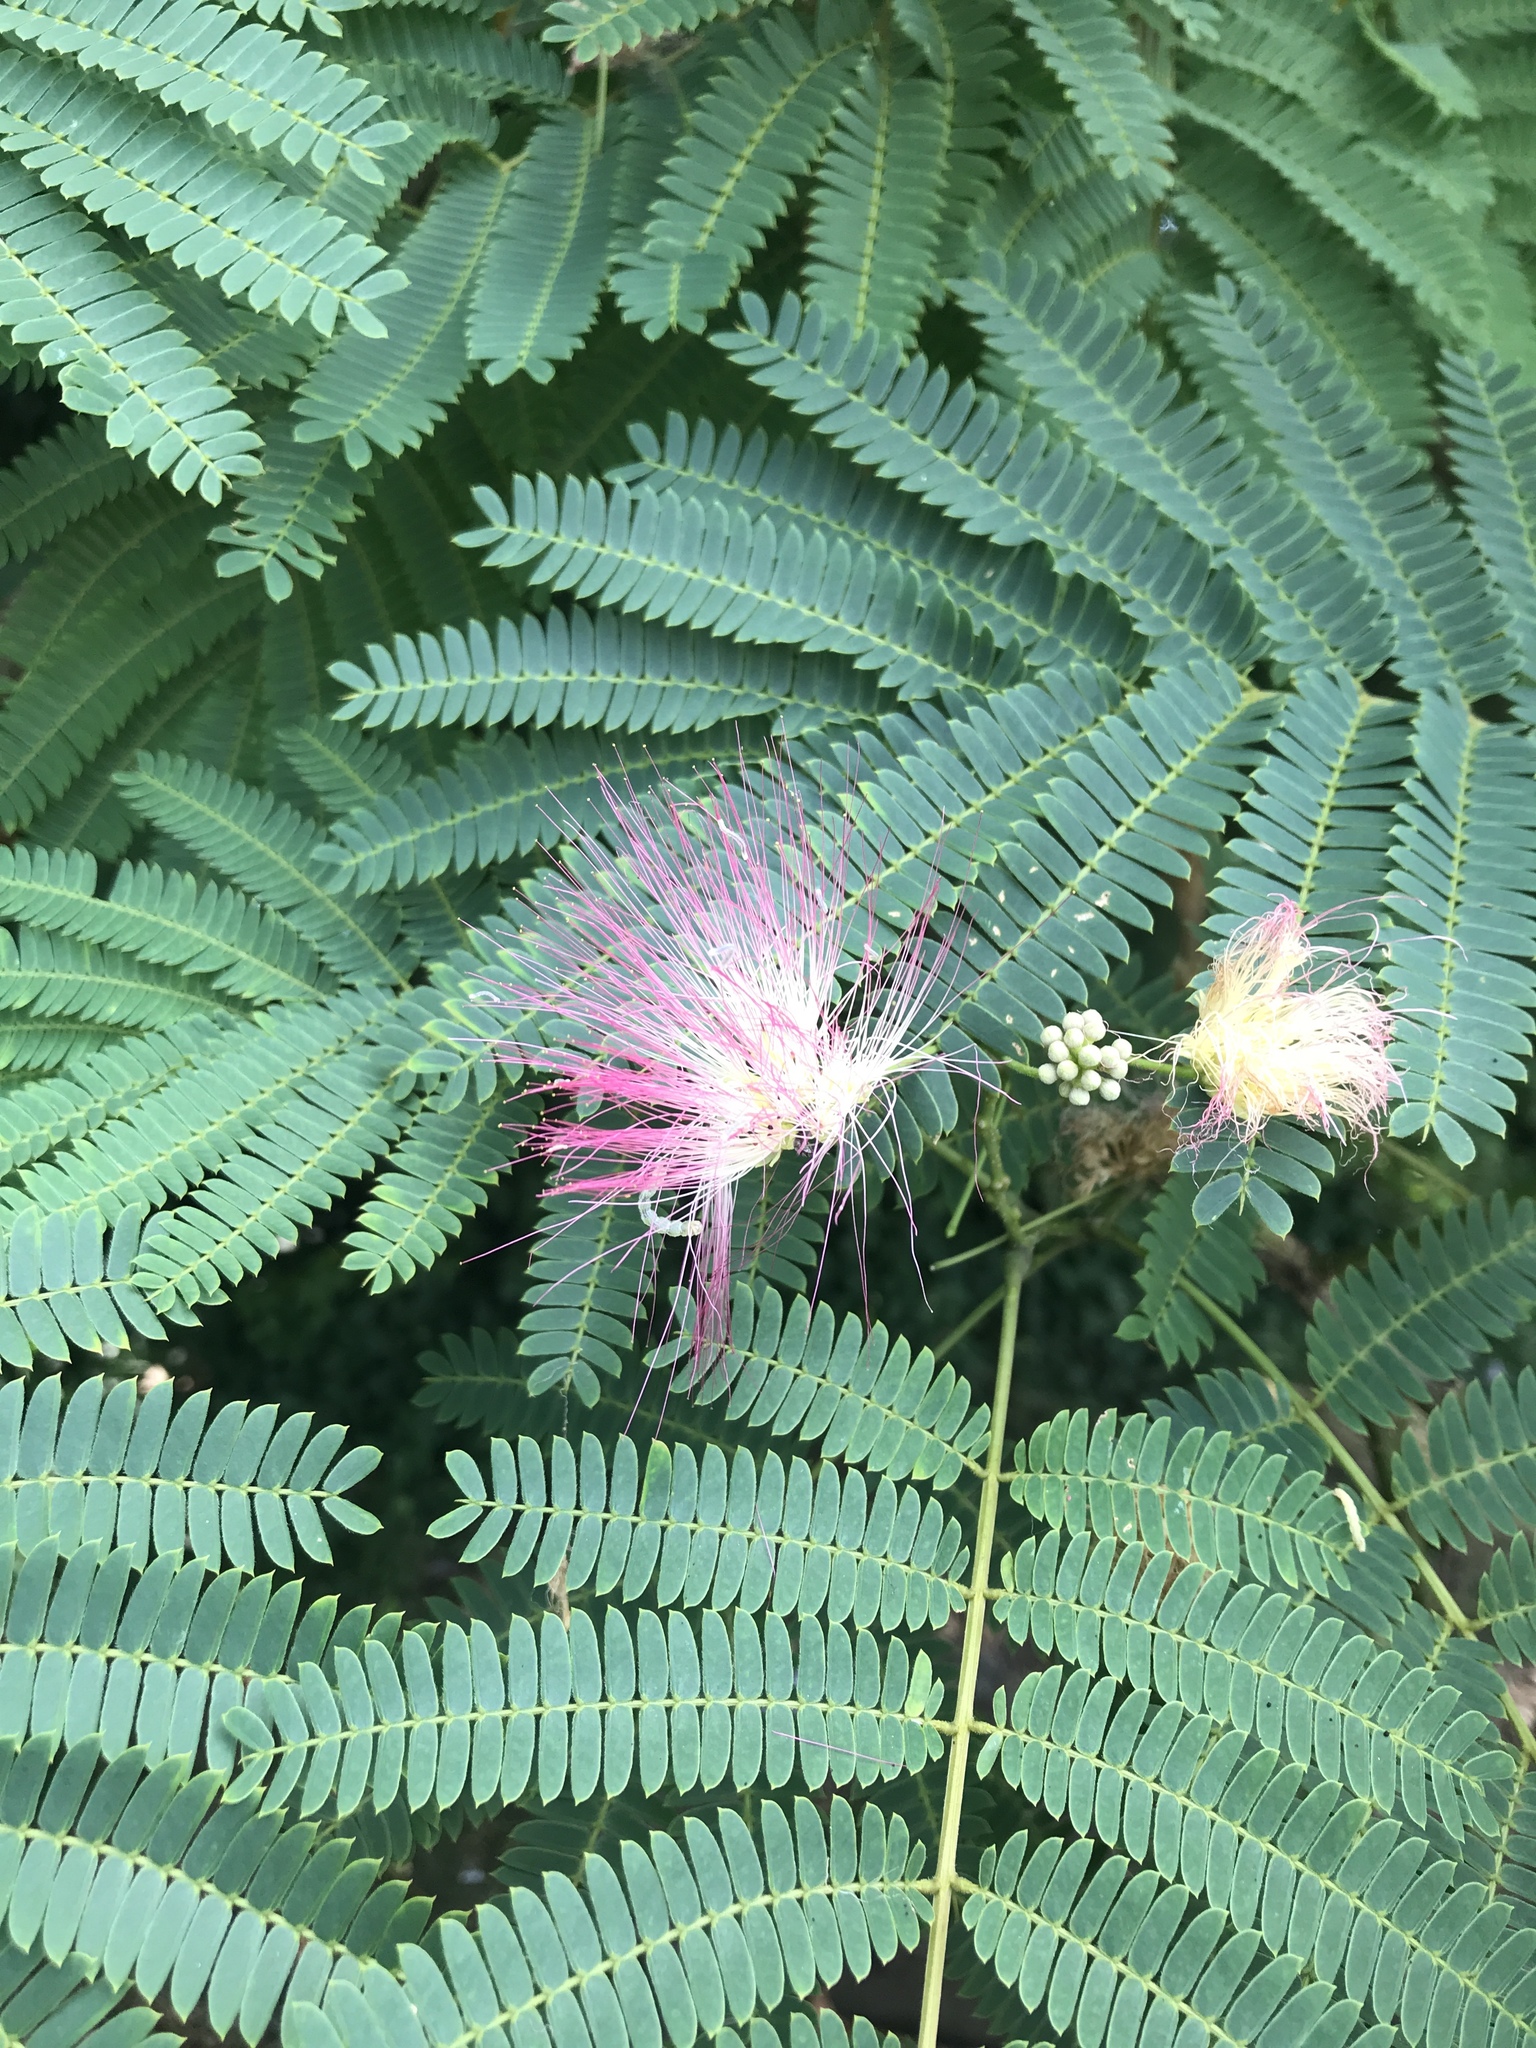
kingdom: Plantae
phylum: Tracheophyta
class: Magnoliopsida
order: Fabales
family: Fabaceae
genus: Albizia
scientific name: Albizia julibrissin
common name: Silktree
